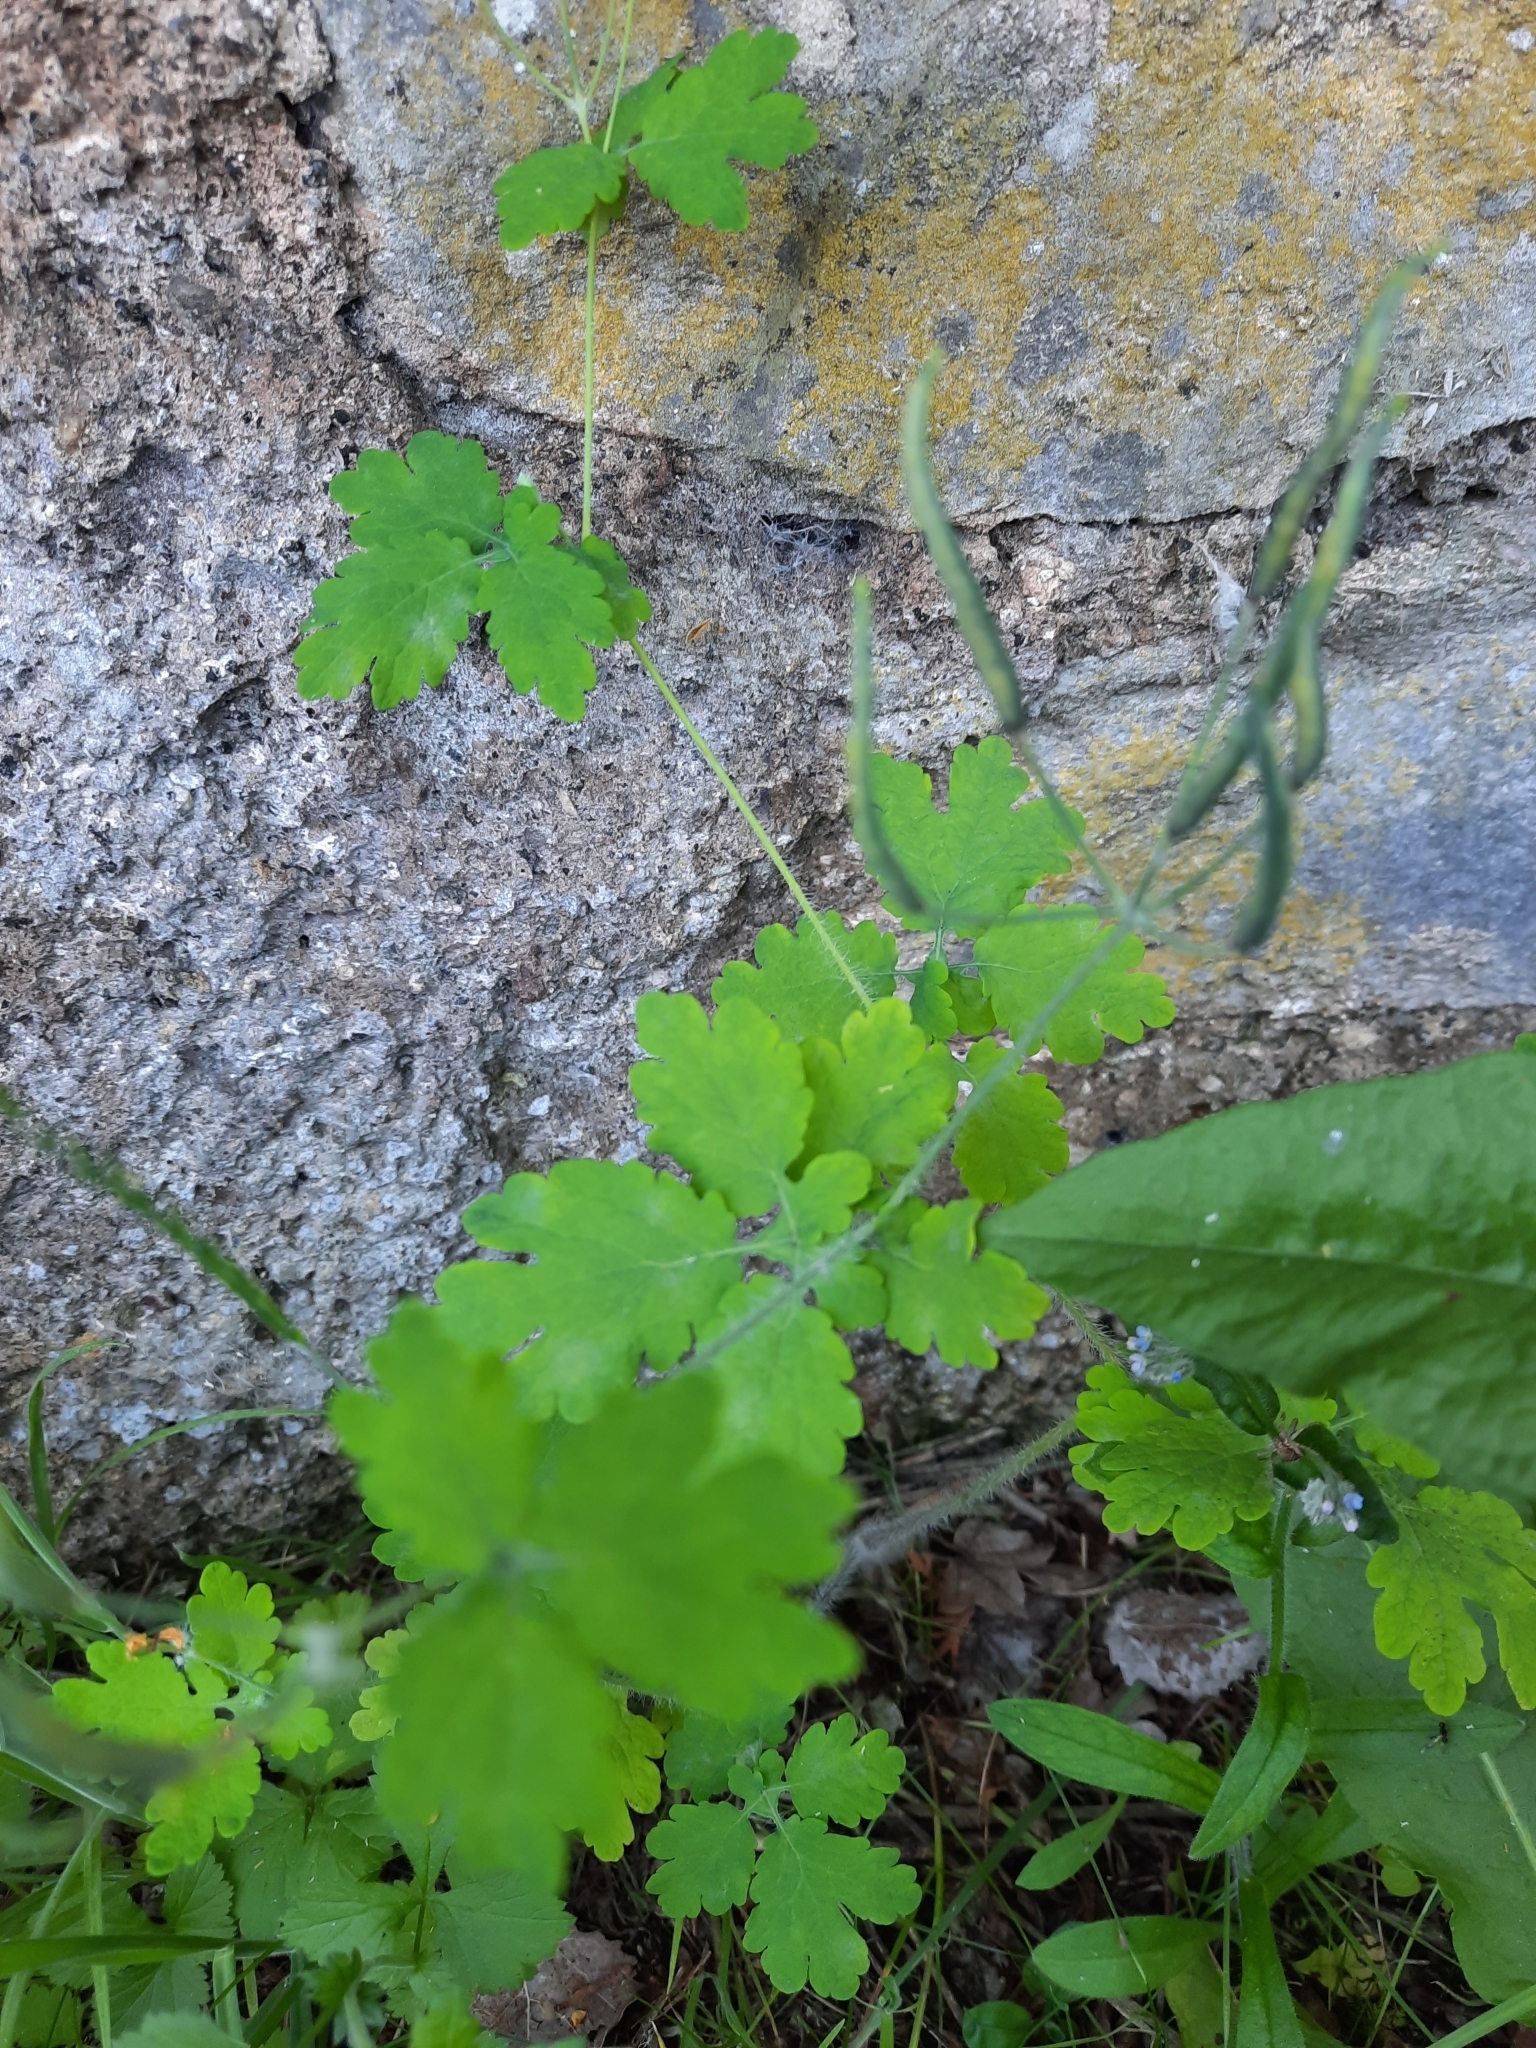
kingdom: Plantae
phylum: Tracheophyta
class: Magnoliopsida
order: Ranunculales
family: Papaveraceae
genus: Chelidonium
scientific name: Chelidonium majus
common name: Greater celandine
